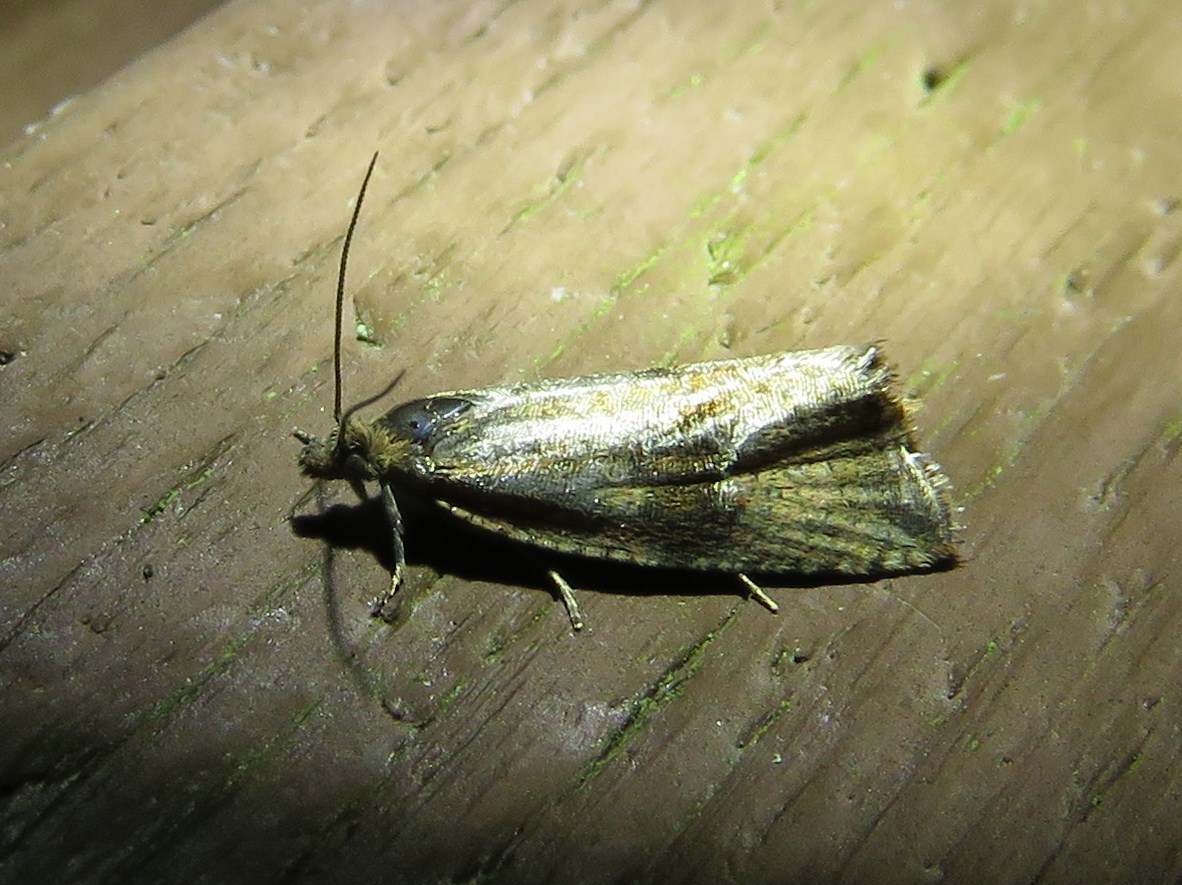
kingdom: Animalia
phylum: Arthropoda
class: Insecta
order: Lepidoptera
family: Tortricidae
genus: Celypha
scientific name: Celypha striana
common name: Barred marble
